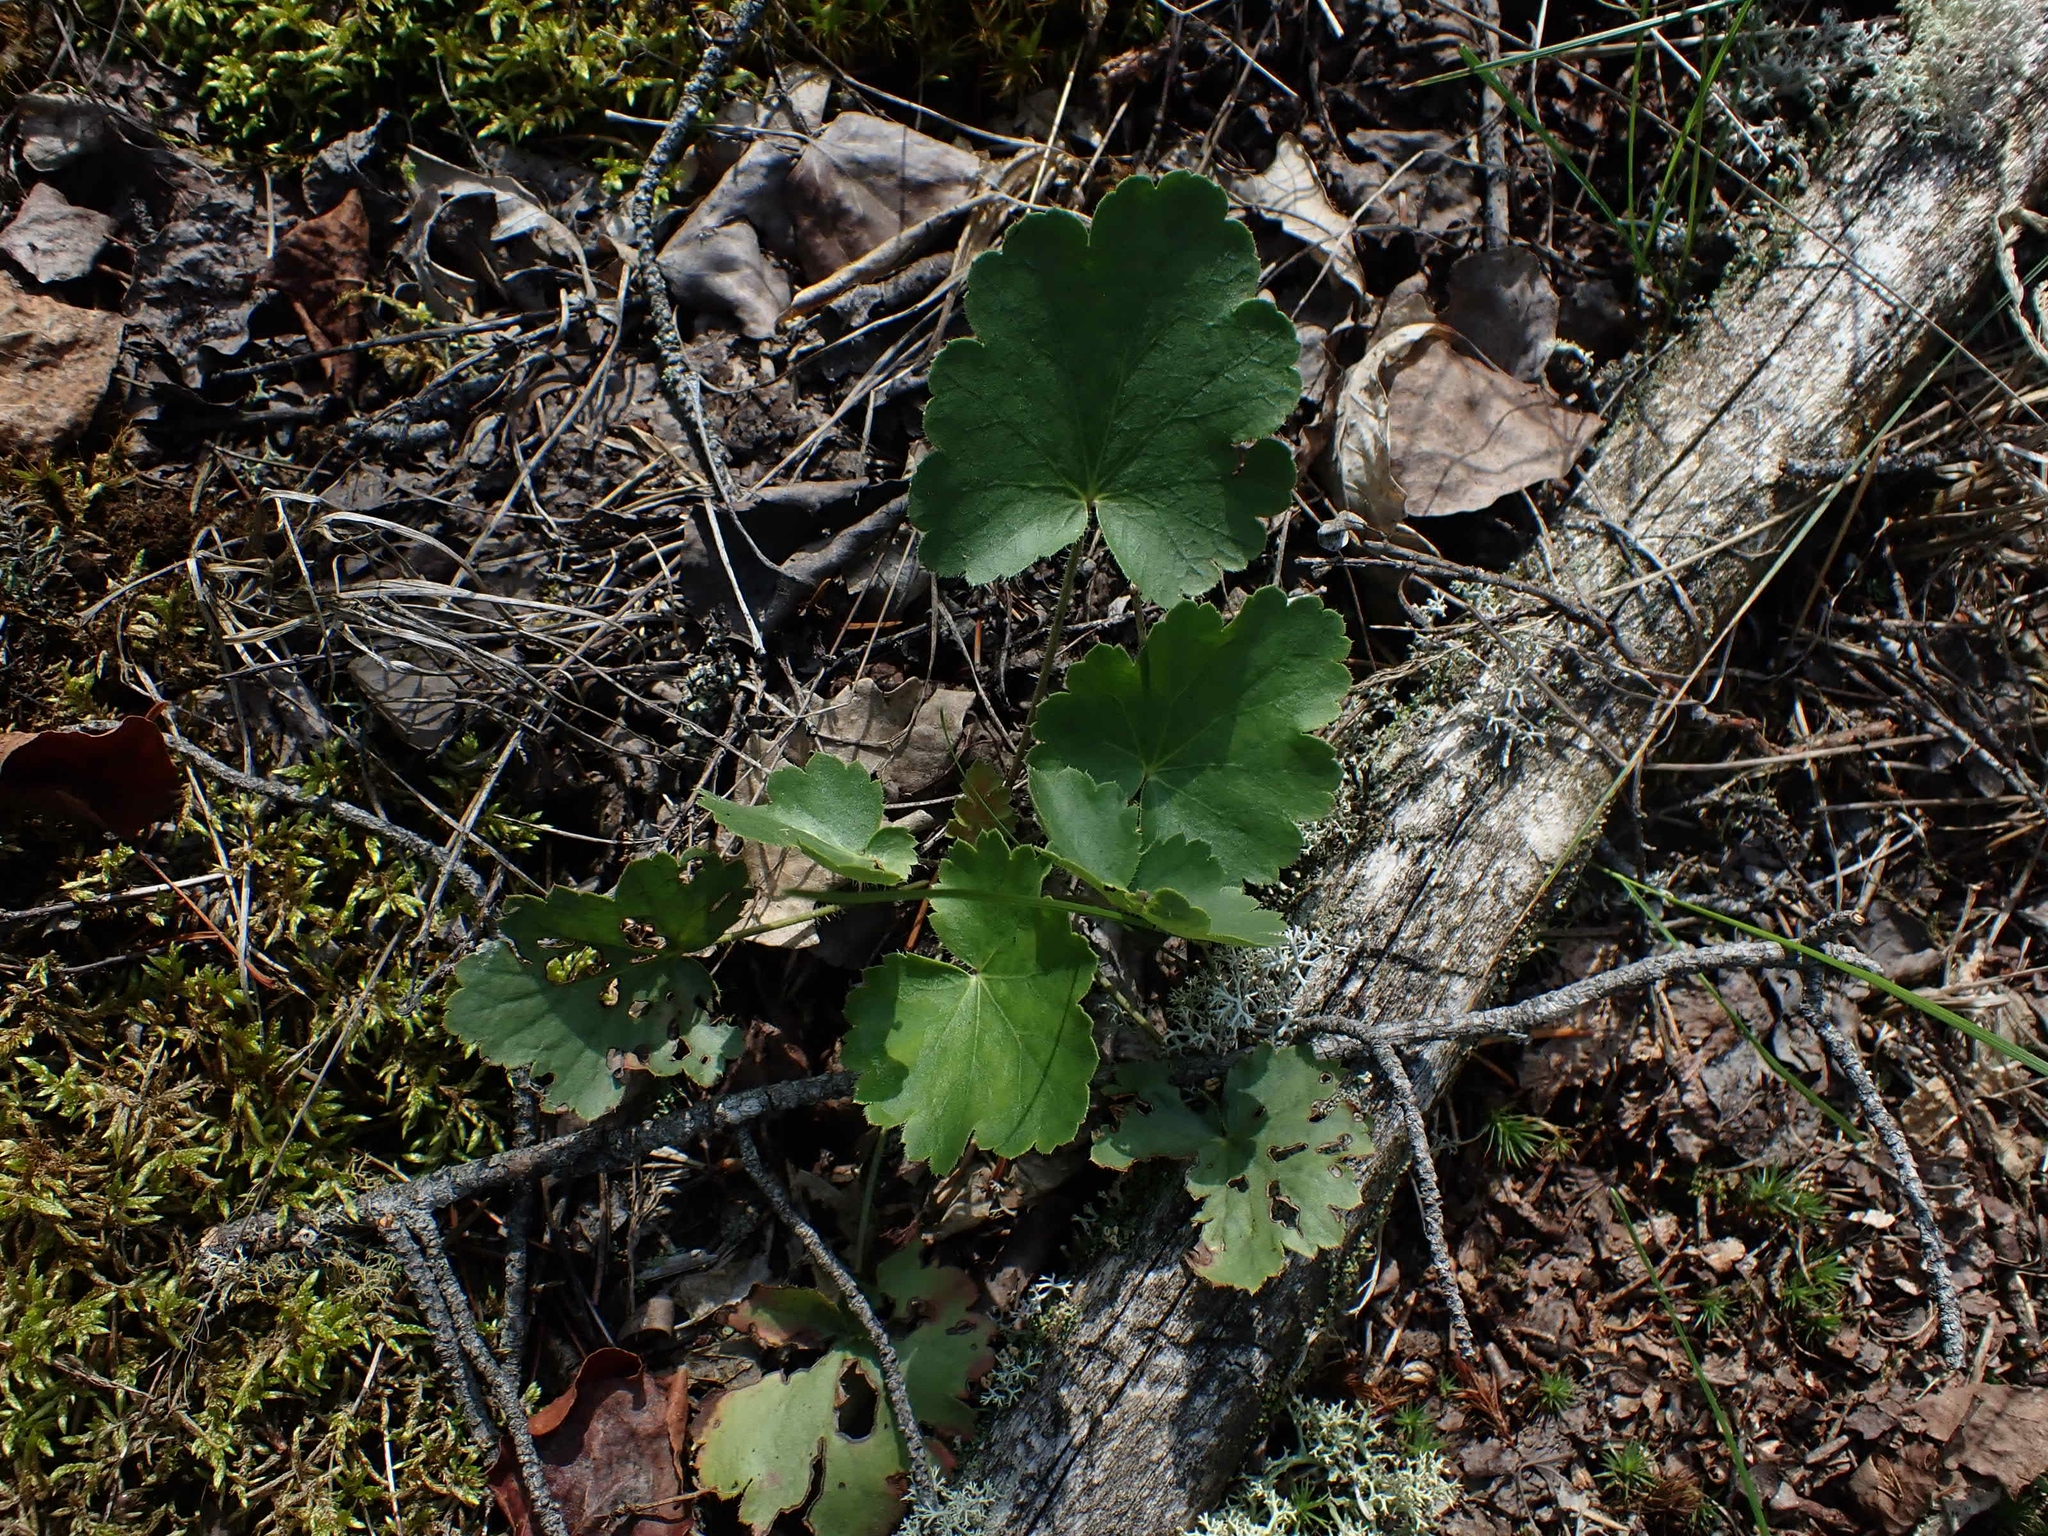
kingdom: Plantae
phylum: Tracheophyta
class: Magnoliopsida
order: Saxifragales
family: Saxifragaceae
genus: Heuchera
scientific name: Heuchera richardsonii
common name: Richardson's alumroot
